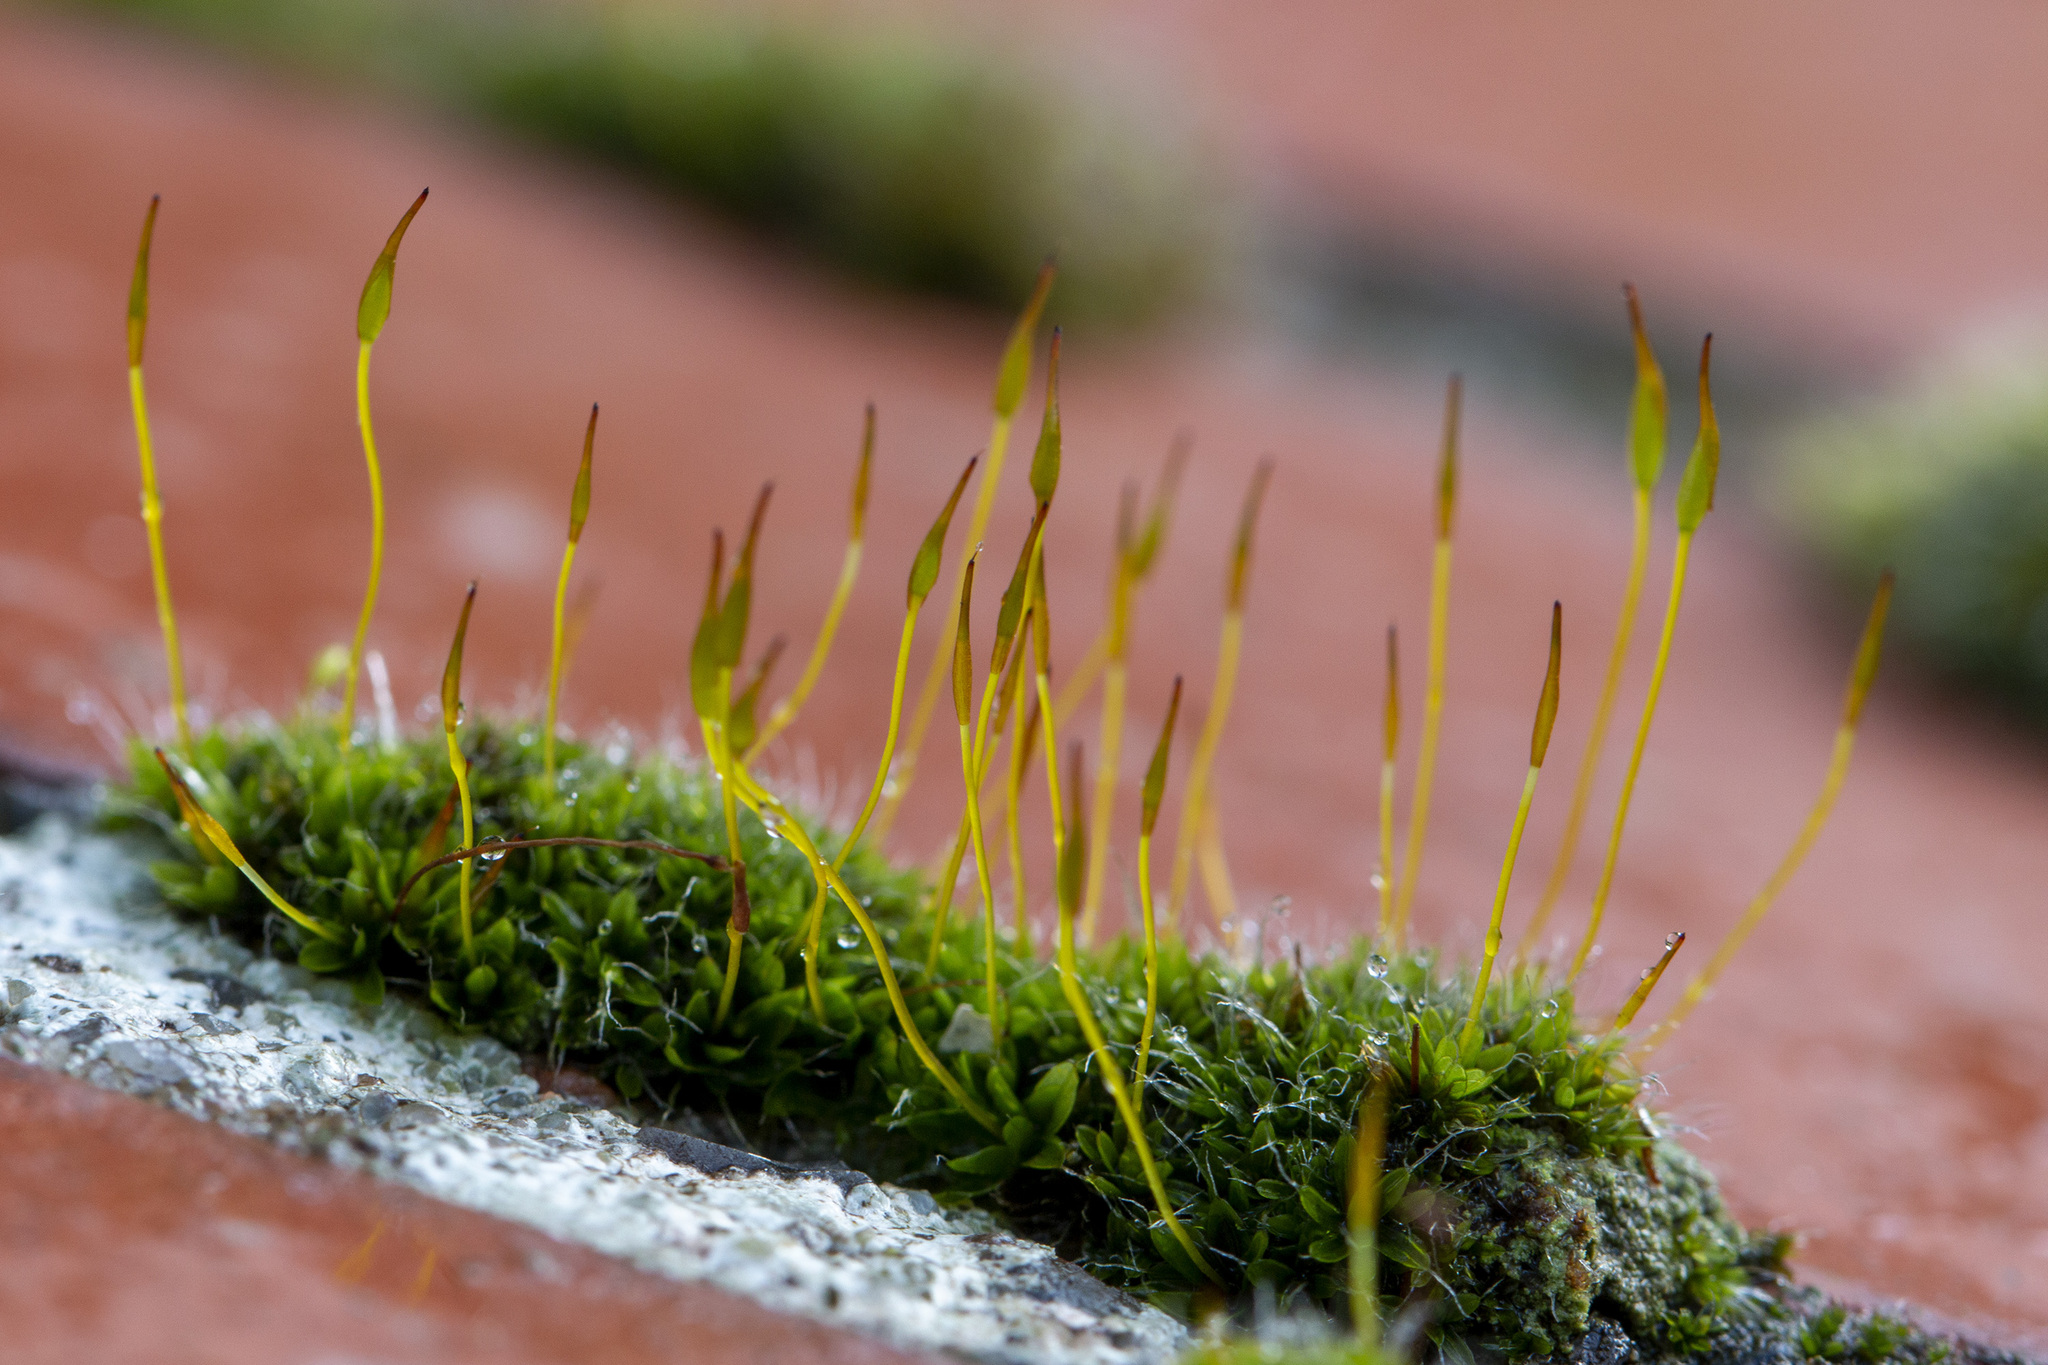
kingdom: Plantae
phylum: Bryophyta
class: Bryopsida
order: Pottiales
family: Pottiaceae
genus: Tortula
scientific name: Tortula muralis
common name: Wall screw-moss
